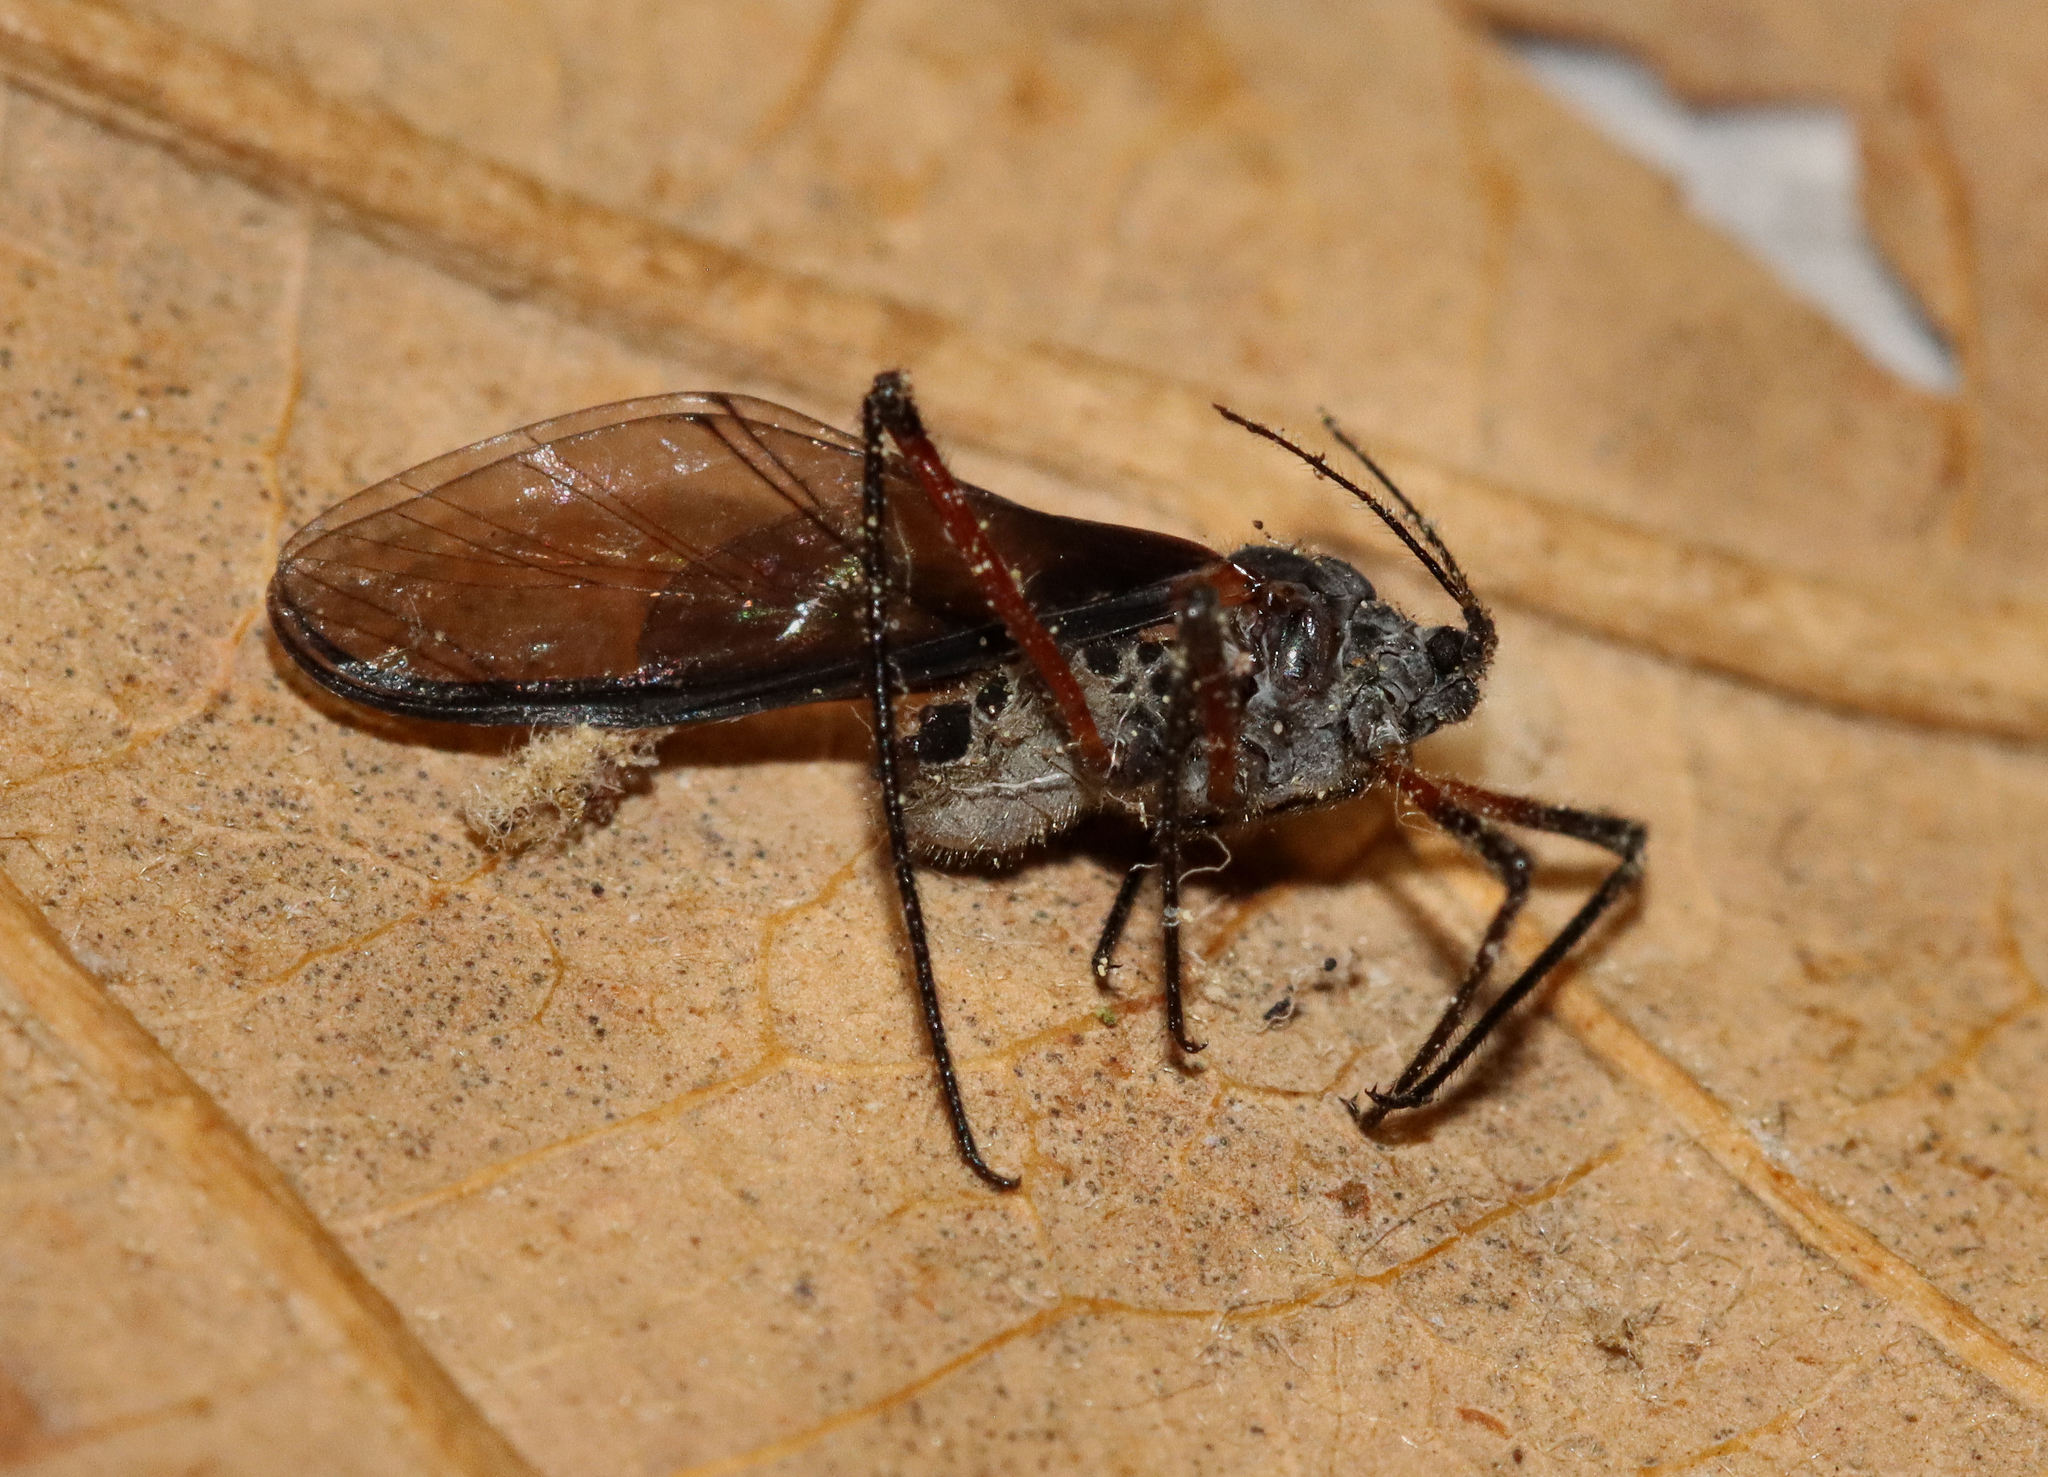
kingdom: Animalia
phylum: Arthropoda
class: Insecta
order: Hemiptera
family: Aphididae
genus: Longistigma
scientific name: Longistigma caryae
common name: Giant bark aphid
